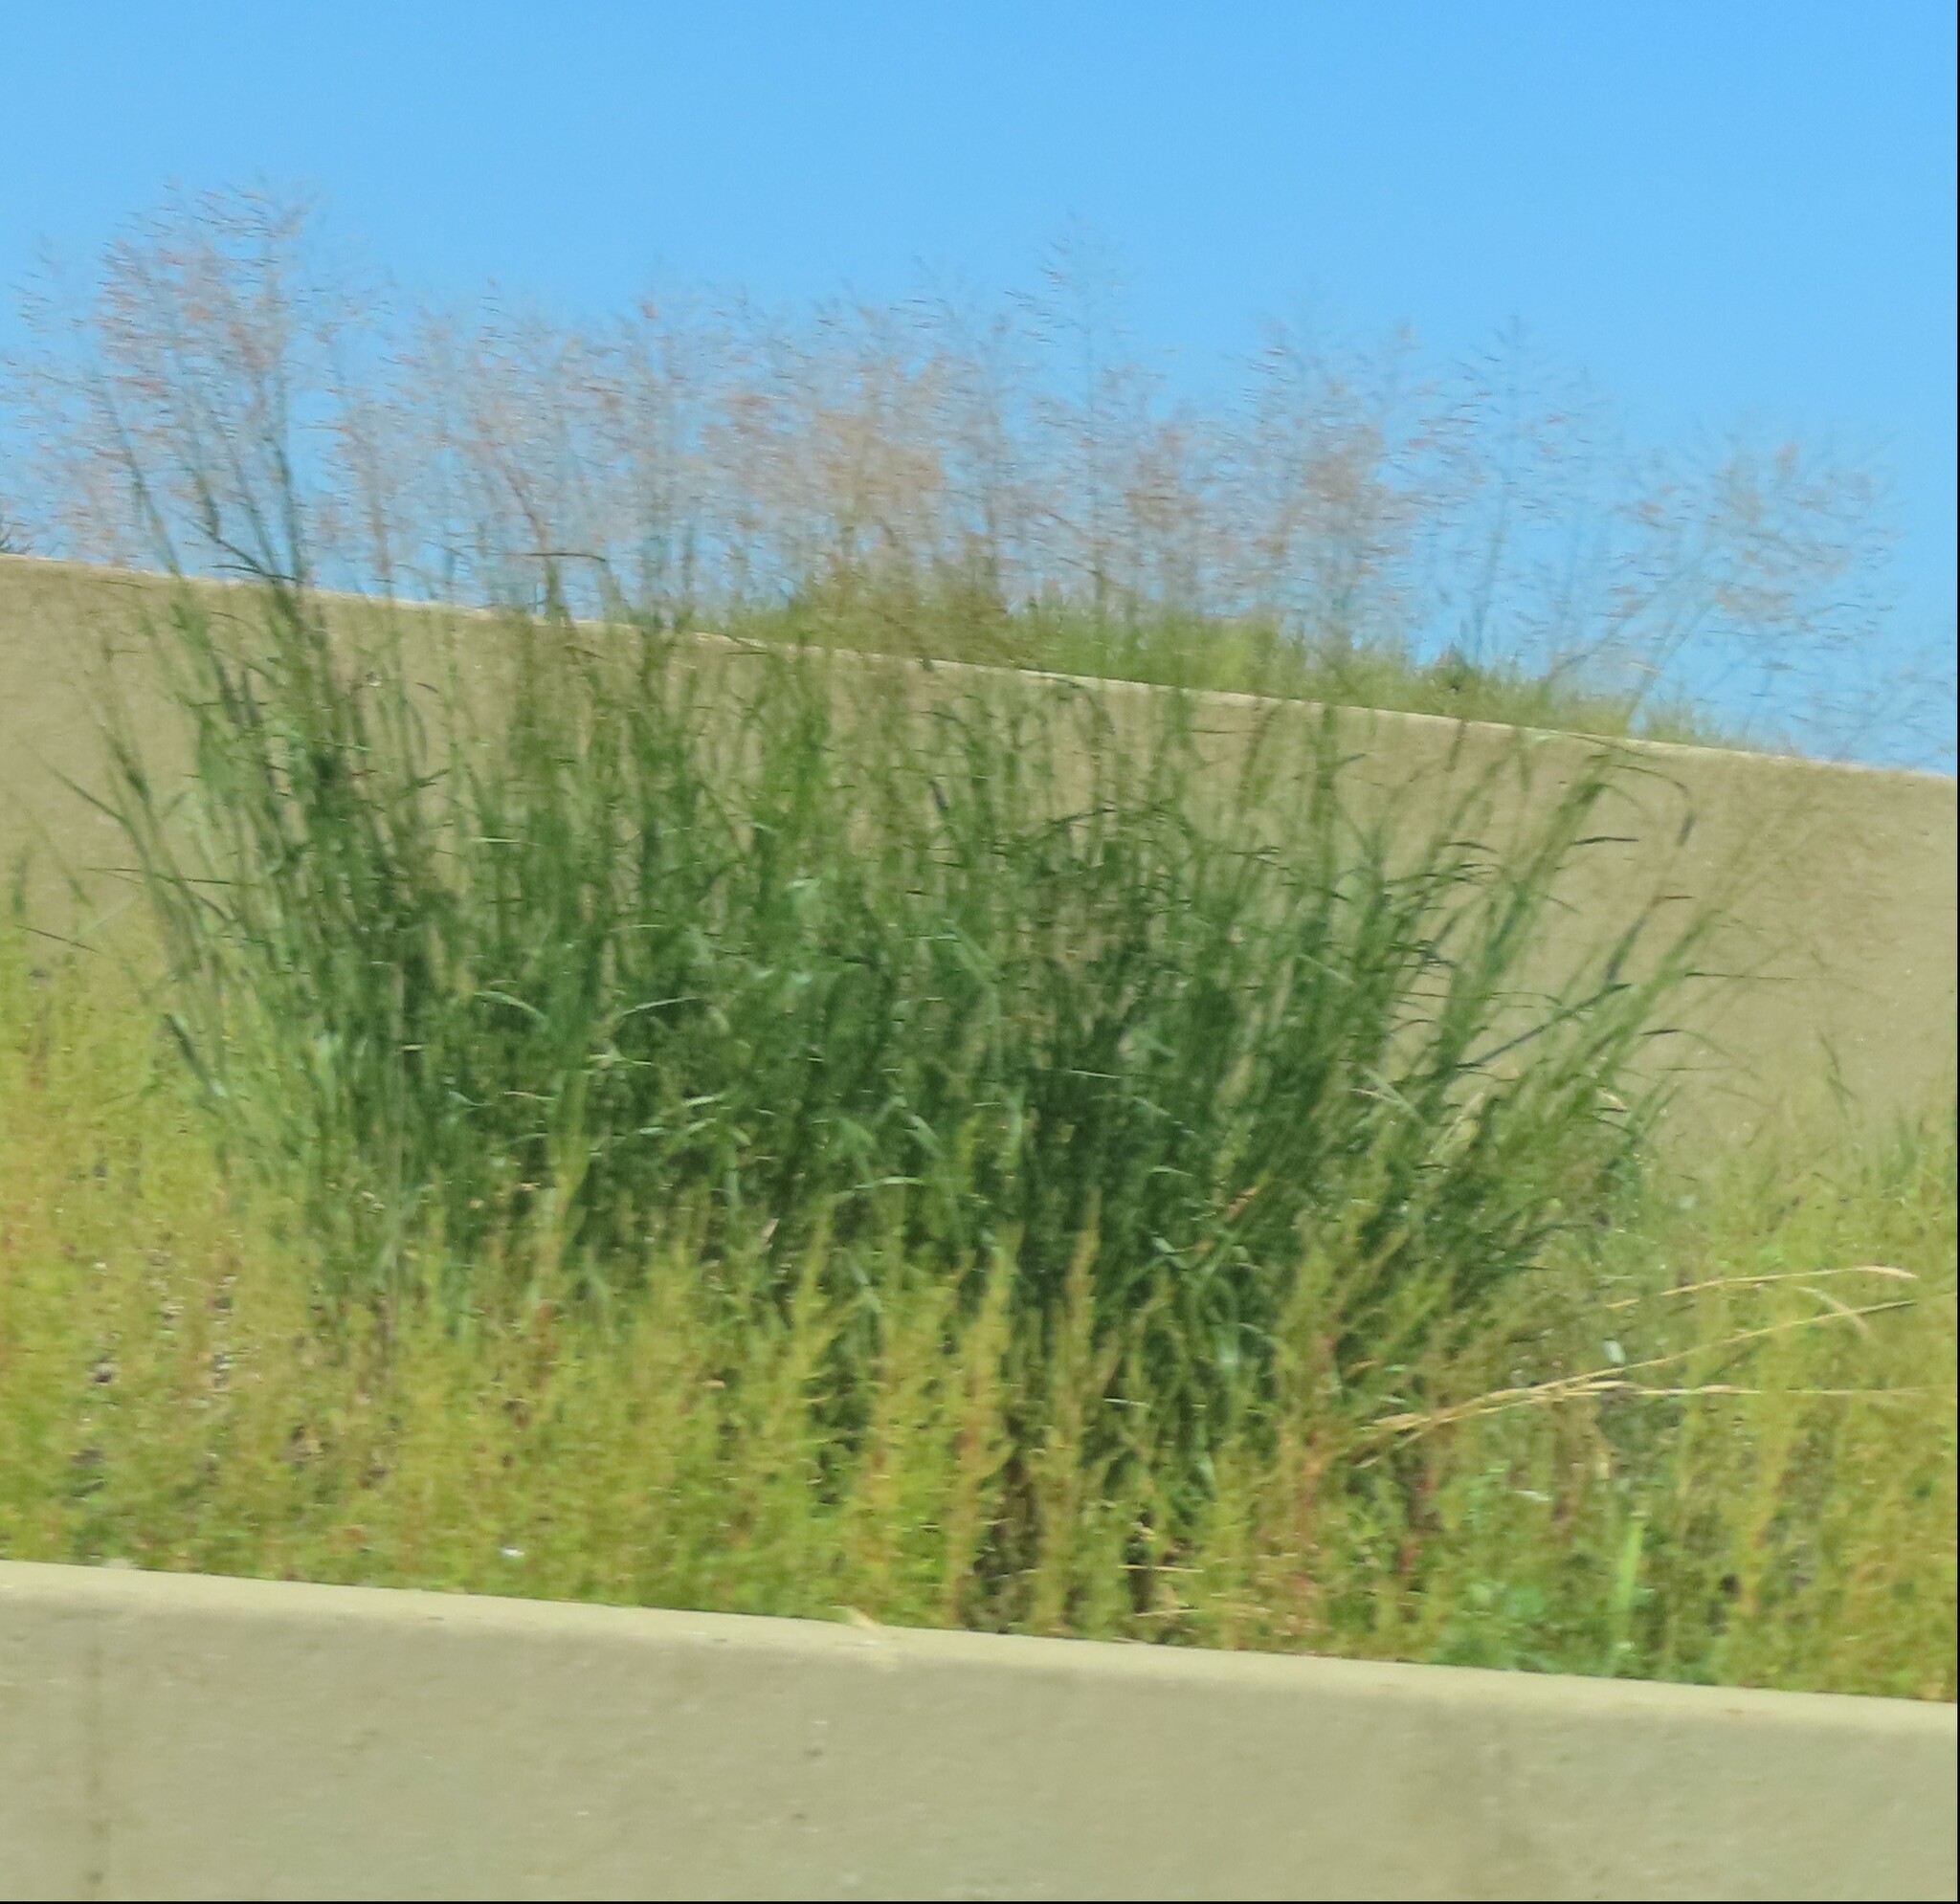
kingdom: Plantae
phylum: Tracheophyta
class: Liliopsida
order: Poales
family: Poaceae
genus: Panicum
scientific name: Panicum virgatum
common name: Switchgrass
